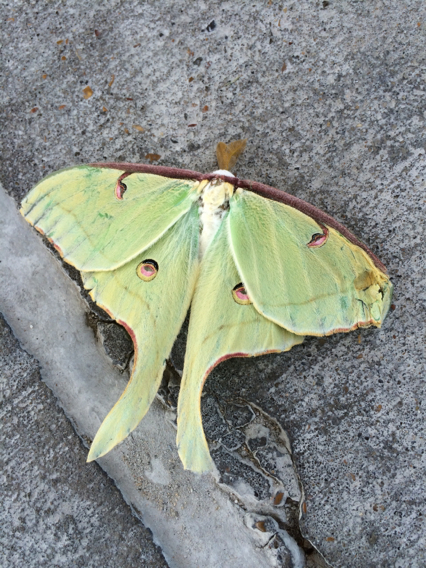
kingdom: Animalia
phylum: Arthropoda
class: Insecta
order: Lepidoptera
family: Saturniidae
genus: Actias
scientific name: Actias luna
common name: Luna moth
